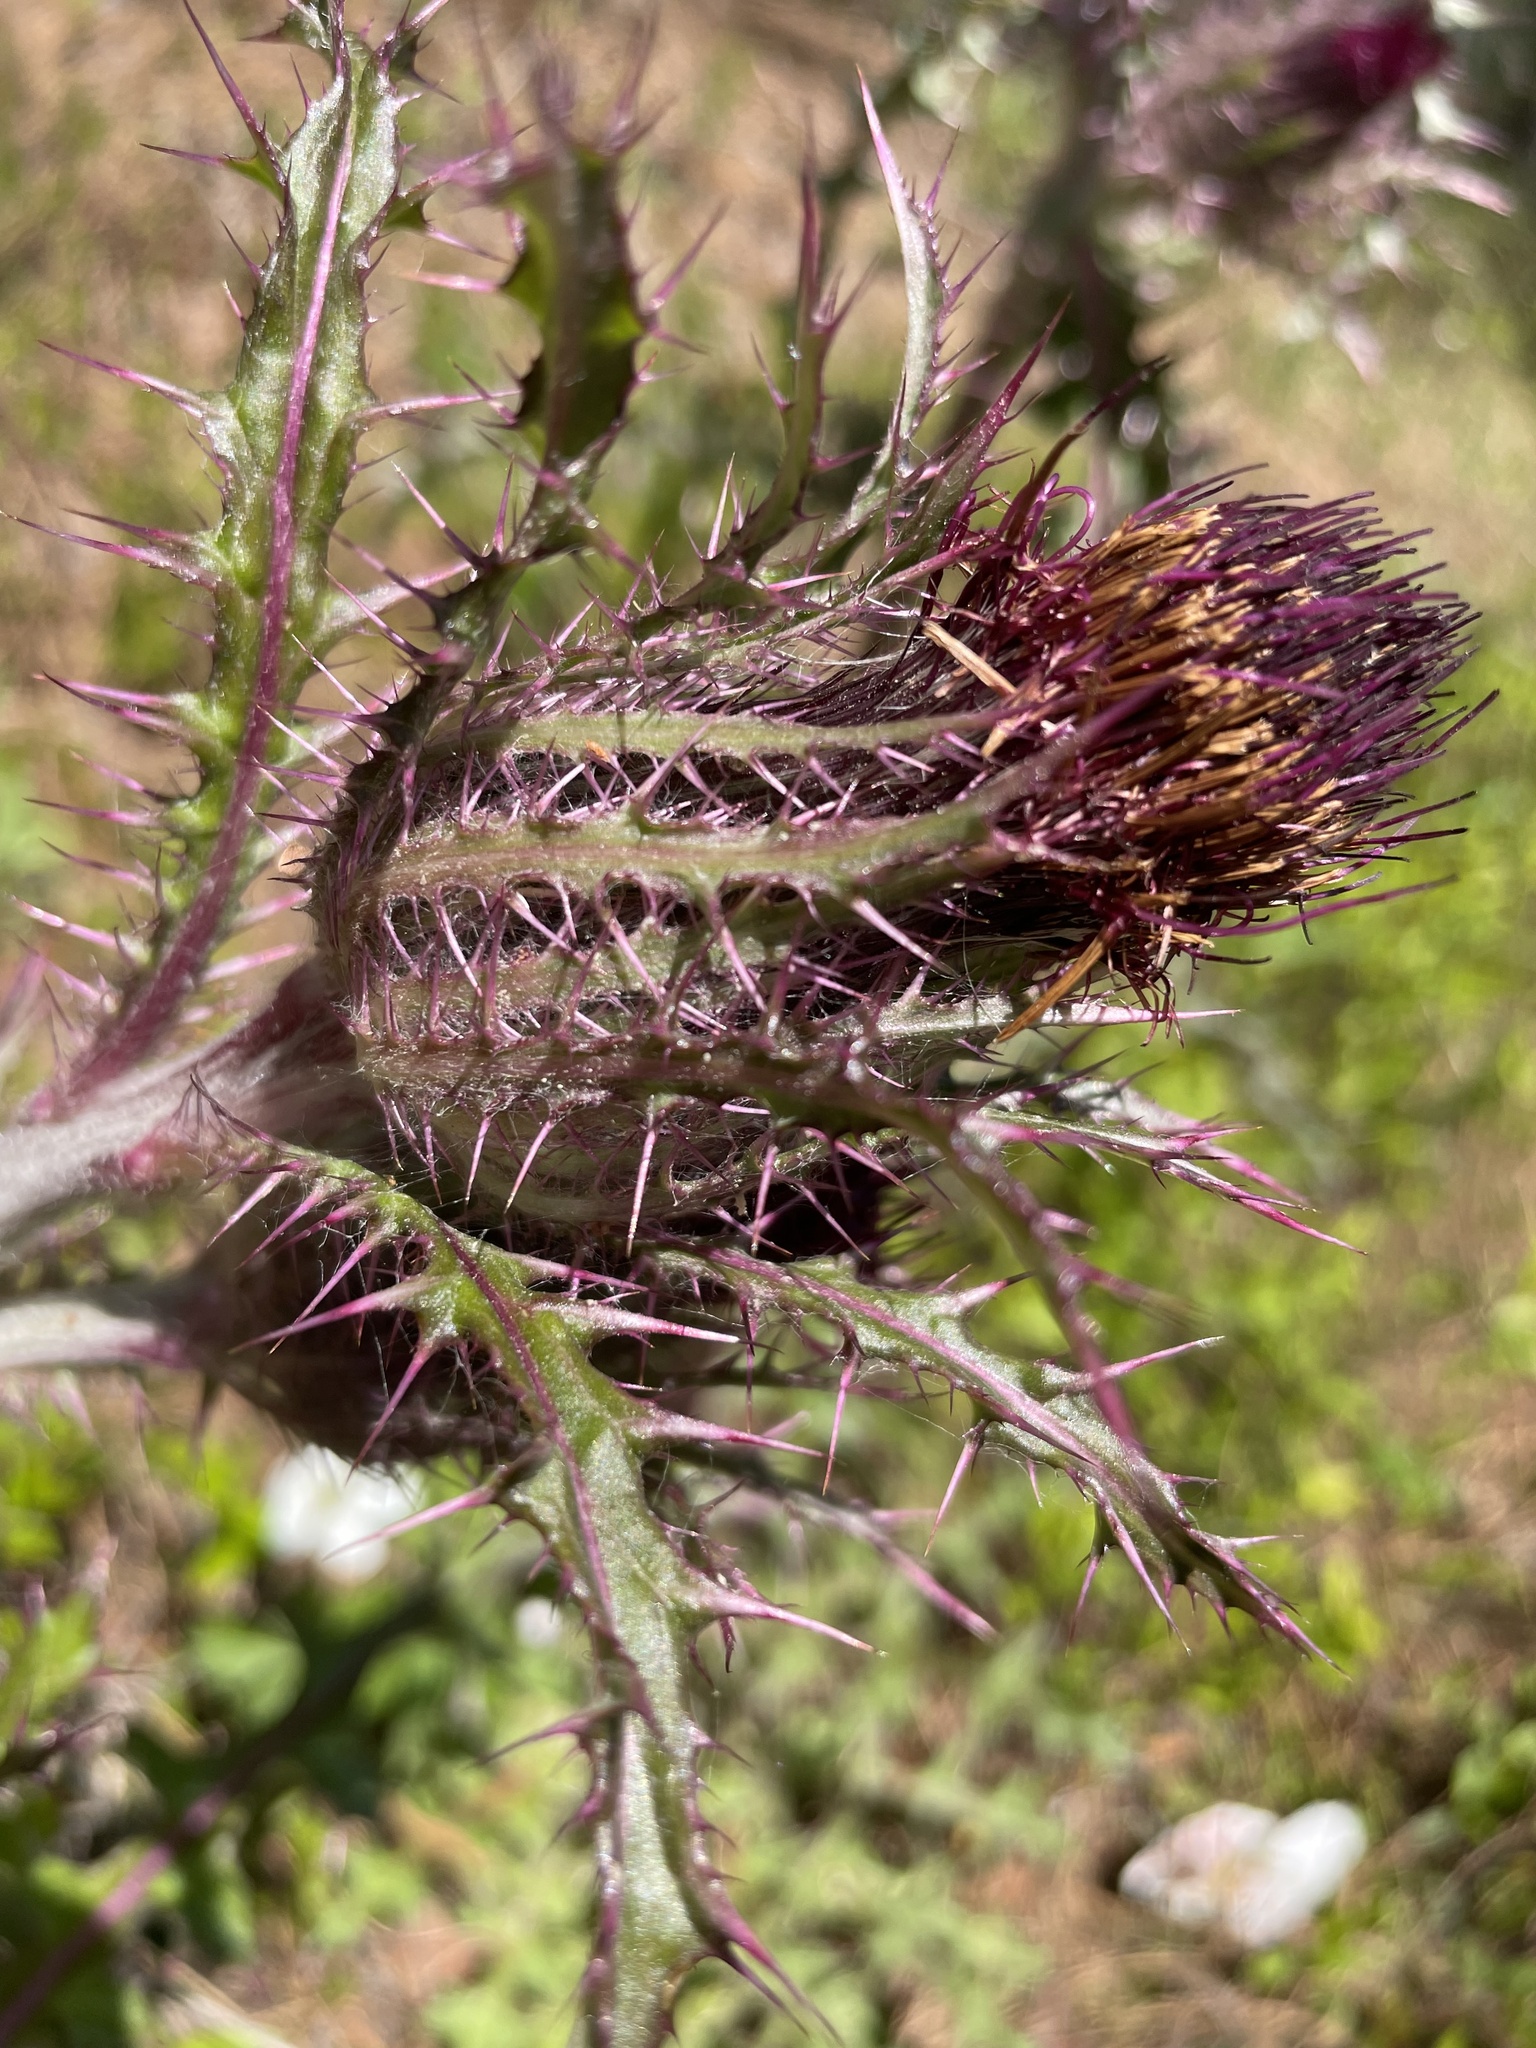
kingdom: Plantae
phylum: Tracheophyta
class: Magnoliopsida
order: Asterales
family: Asteraceae
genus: Cirsium
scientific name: Cirsium horridulum
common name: Bristly thistle
